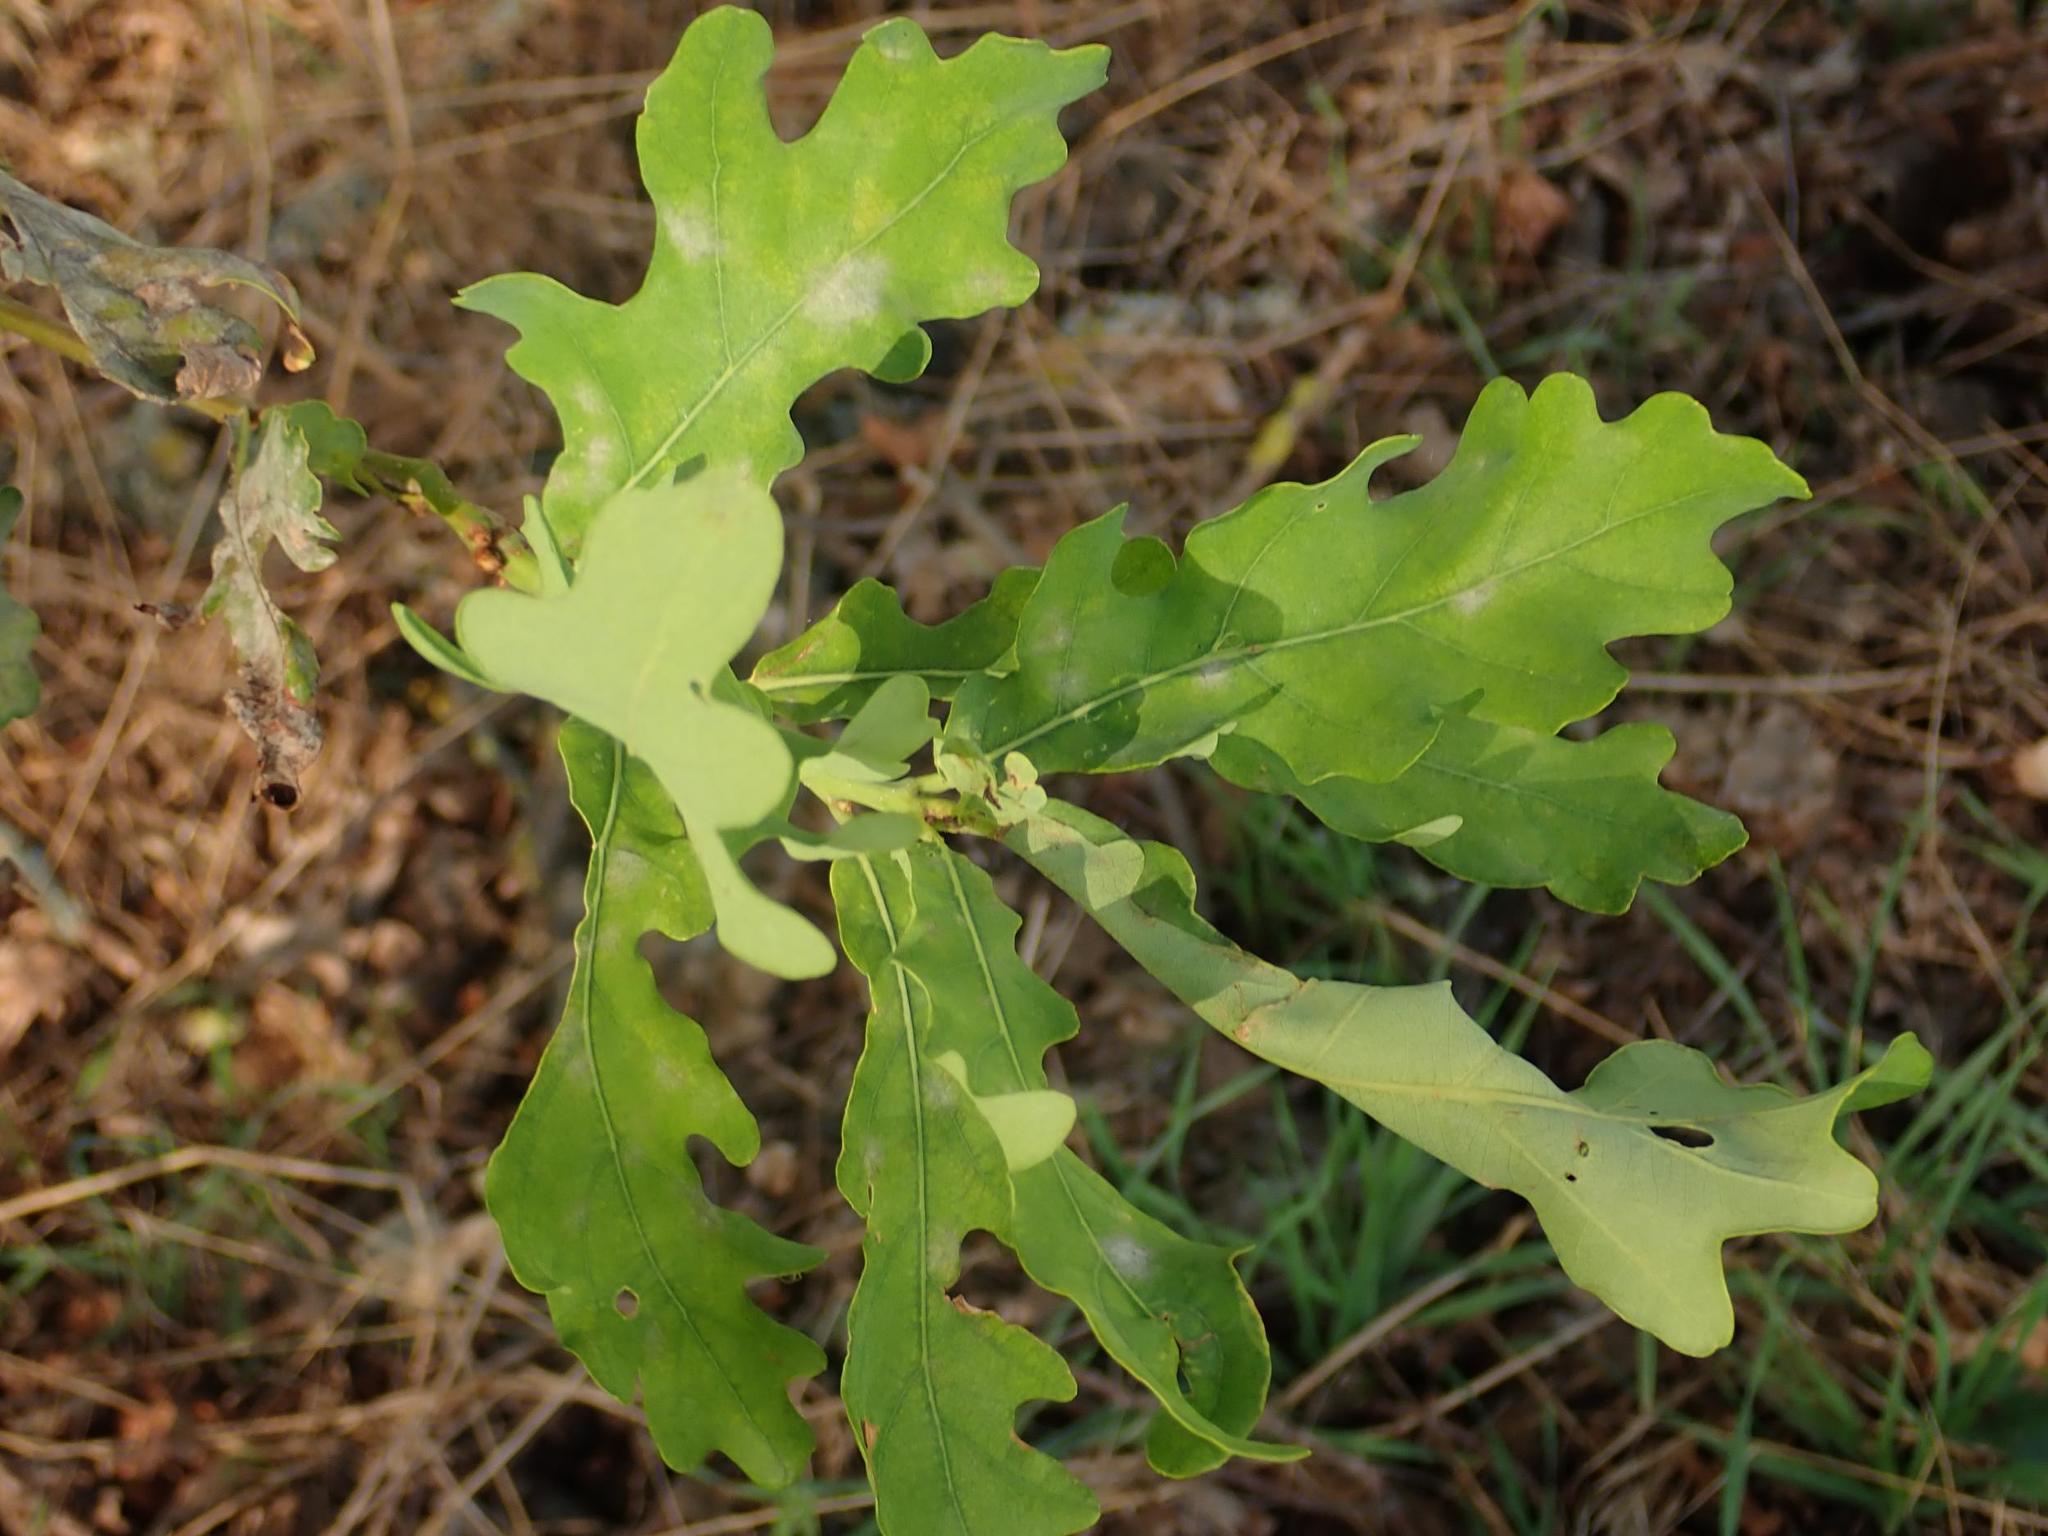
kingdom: Plantae
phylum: Tracheophyta
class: Magnoliopsida
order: Fagales
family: Fagaceae
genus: Quercus
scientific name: Quercus robur
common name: Pedunculate oak
